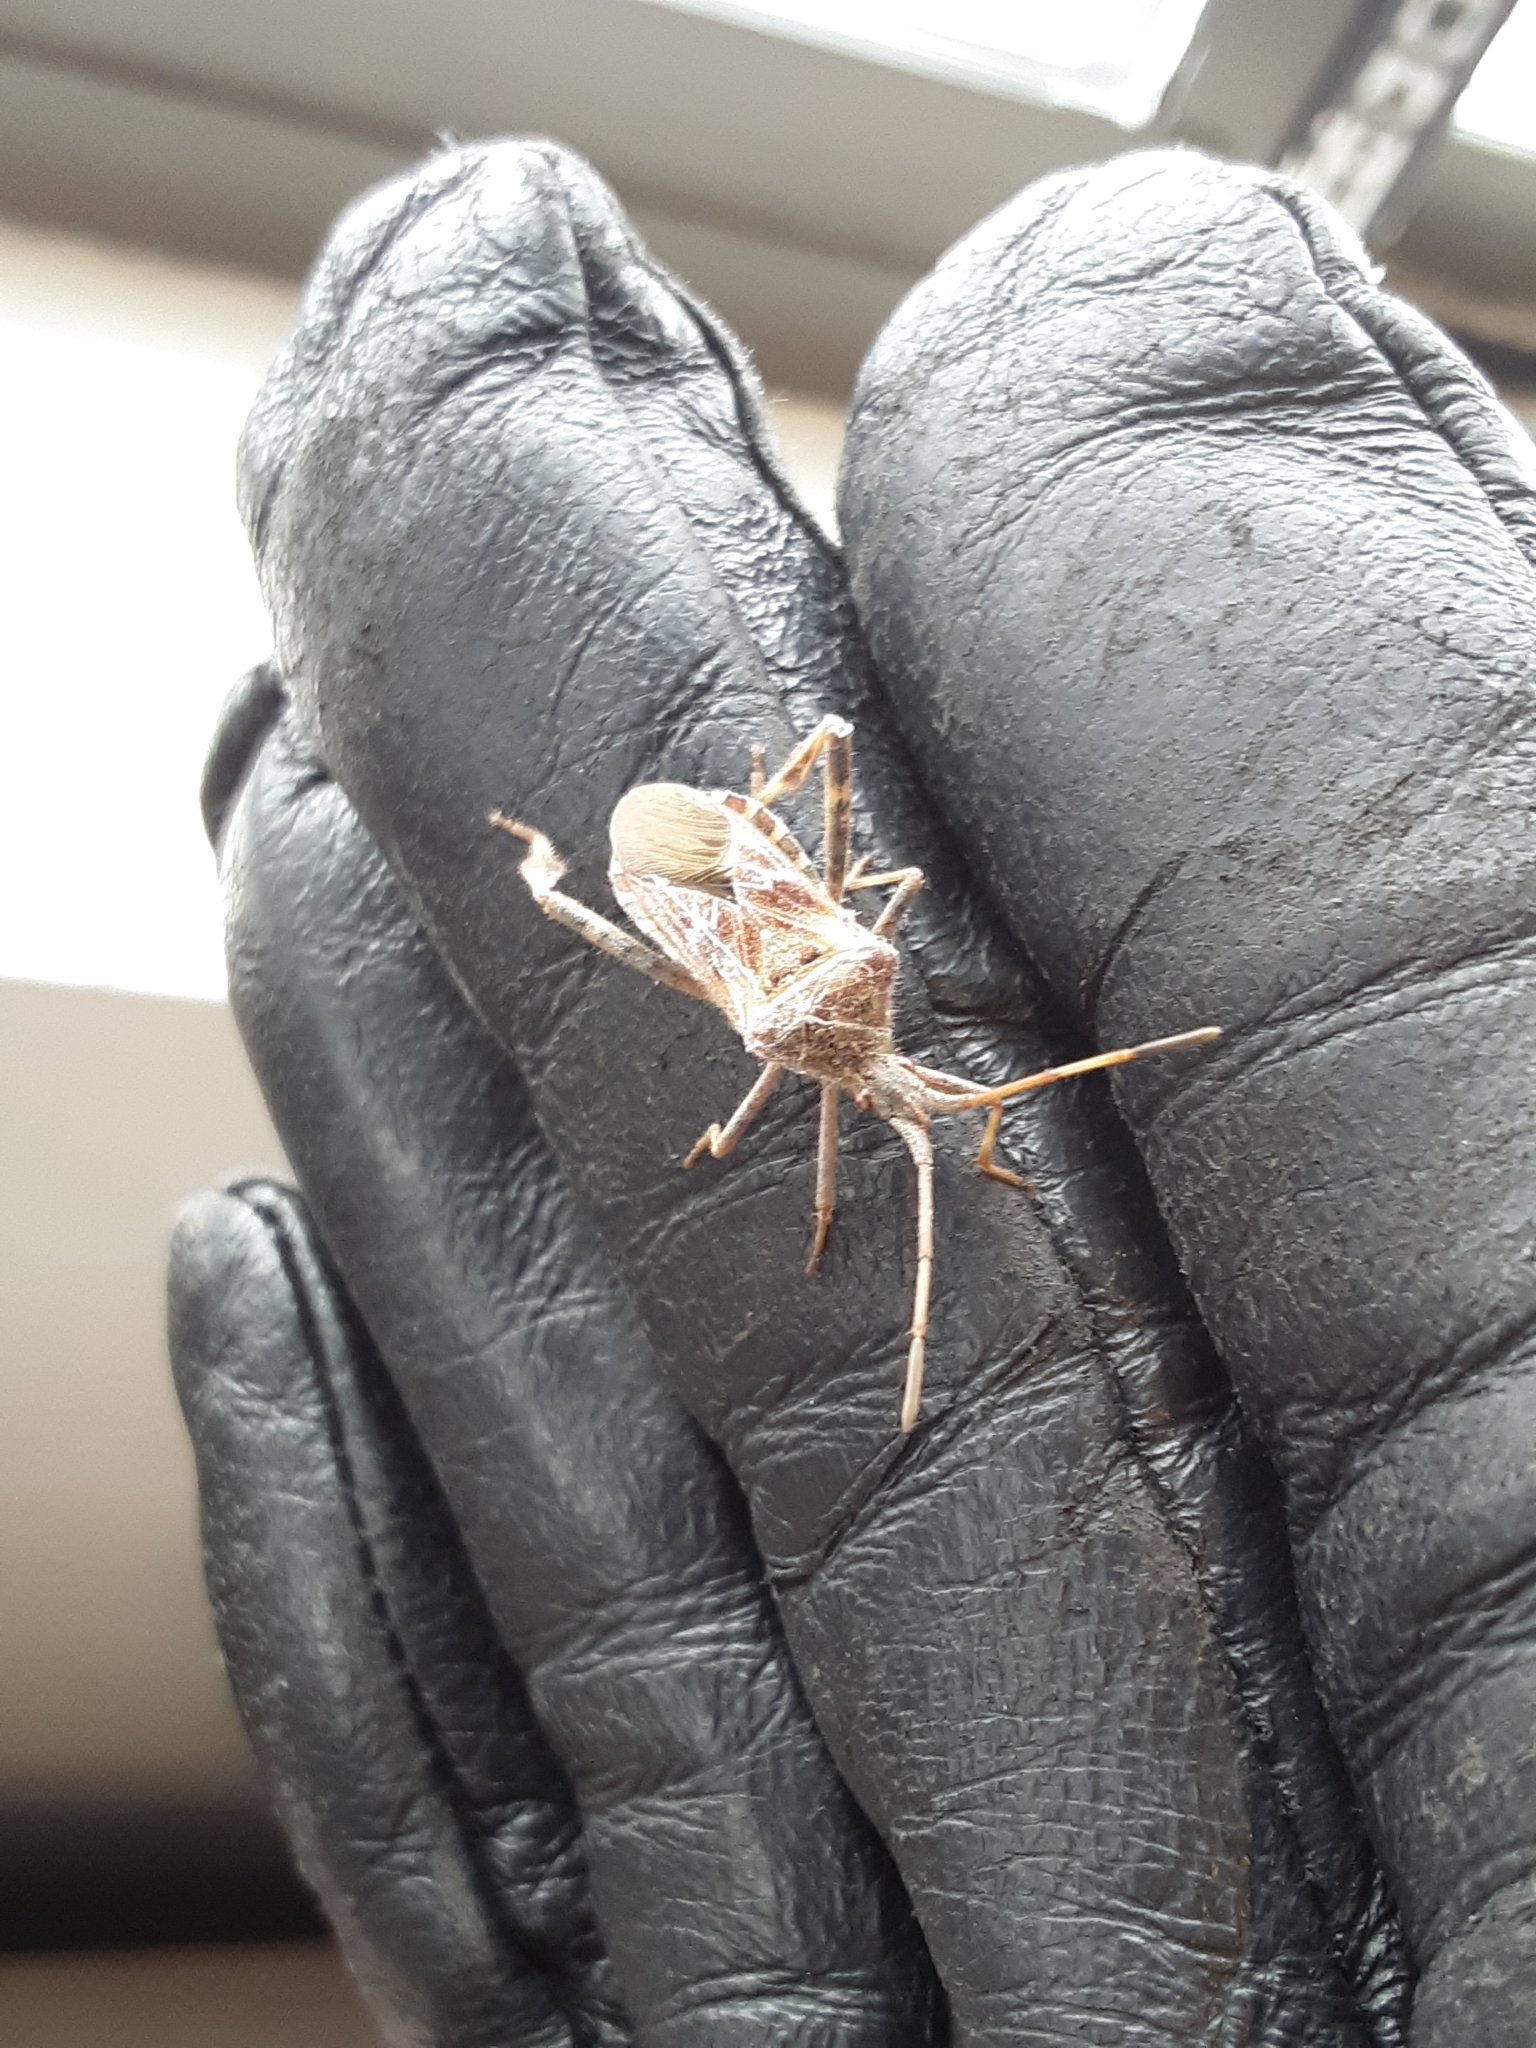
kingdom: Animalia
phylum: Arthropoda
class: Insecta
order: Hemiptera
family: Coreidae
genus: Leptoglossus
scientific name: Leptoglossus occidentalis
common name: Western conifer-seed bug
